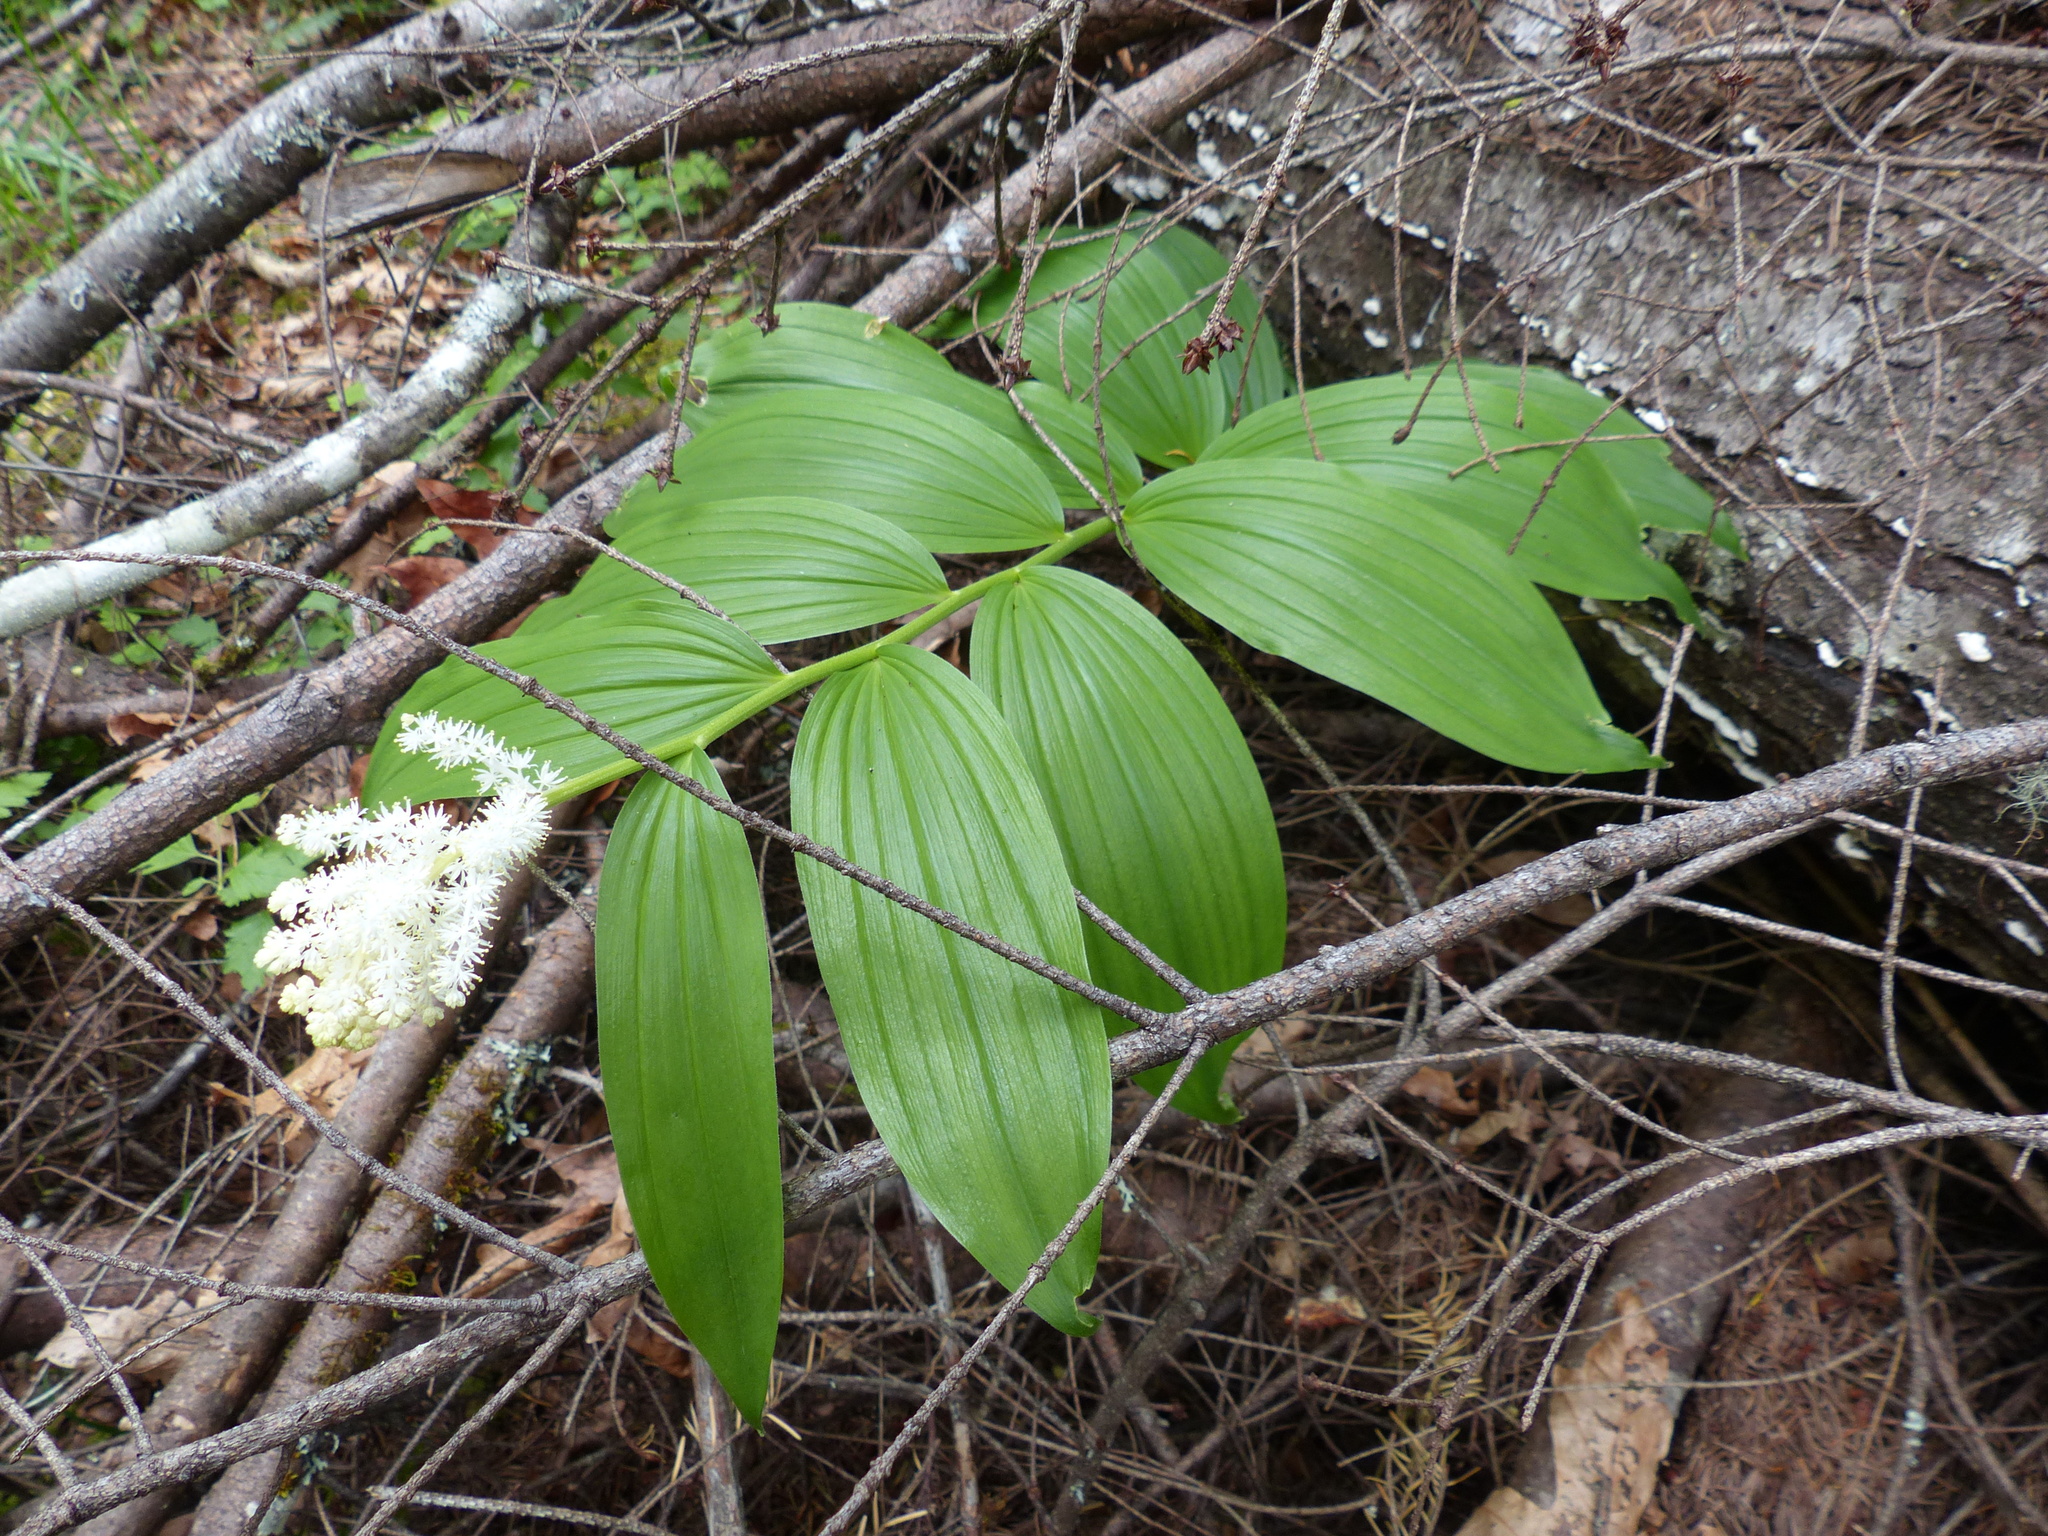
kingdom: Plantae
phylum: Tracheophyta
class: Liliopsida
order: Asparagales
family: Asparagaceae
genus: Maianthemum
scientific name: Maianthemum racemosum
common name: False spikenard
